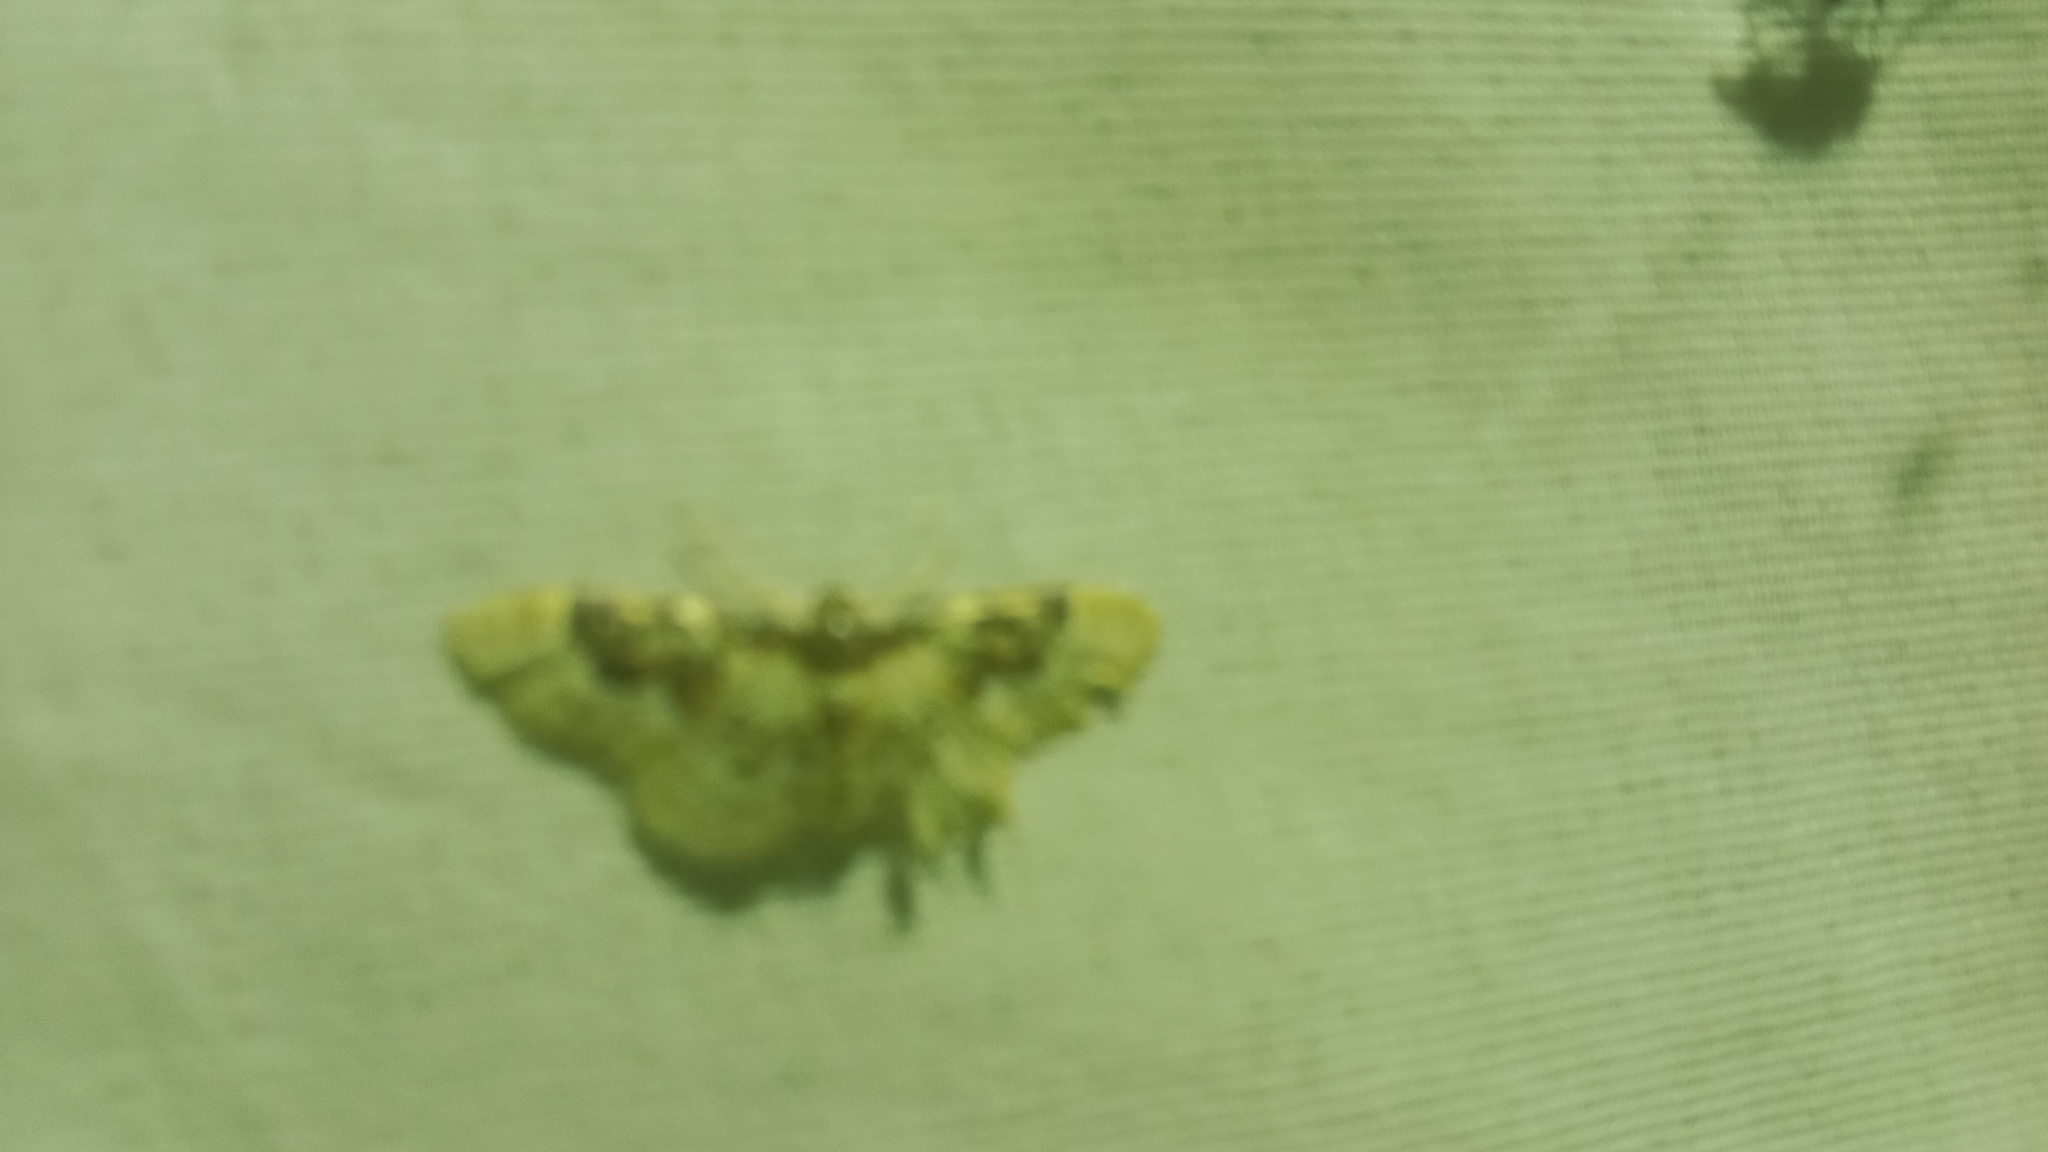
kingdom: Animalia
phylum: Arthropoda
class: Insecta
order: Lepidoptera
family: Geometridae
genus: Idaea
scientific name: Idaea rusticata
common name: Least carpet
